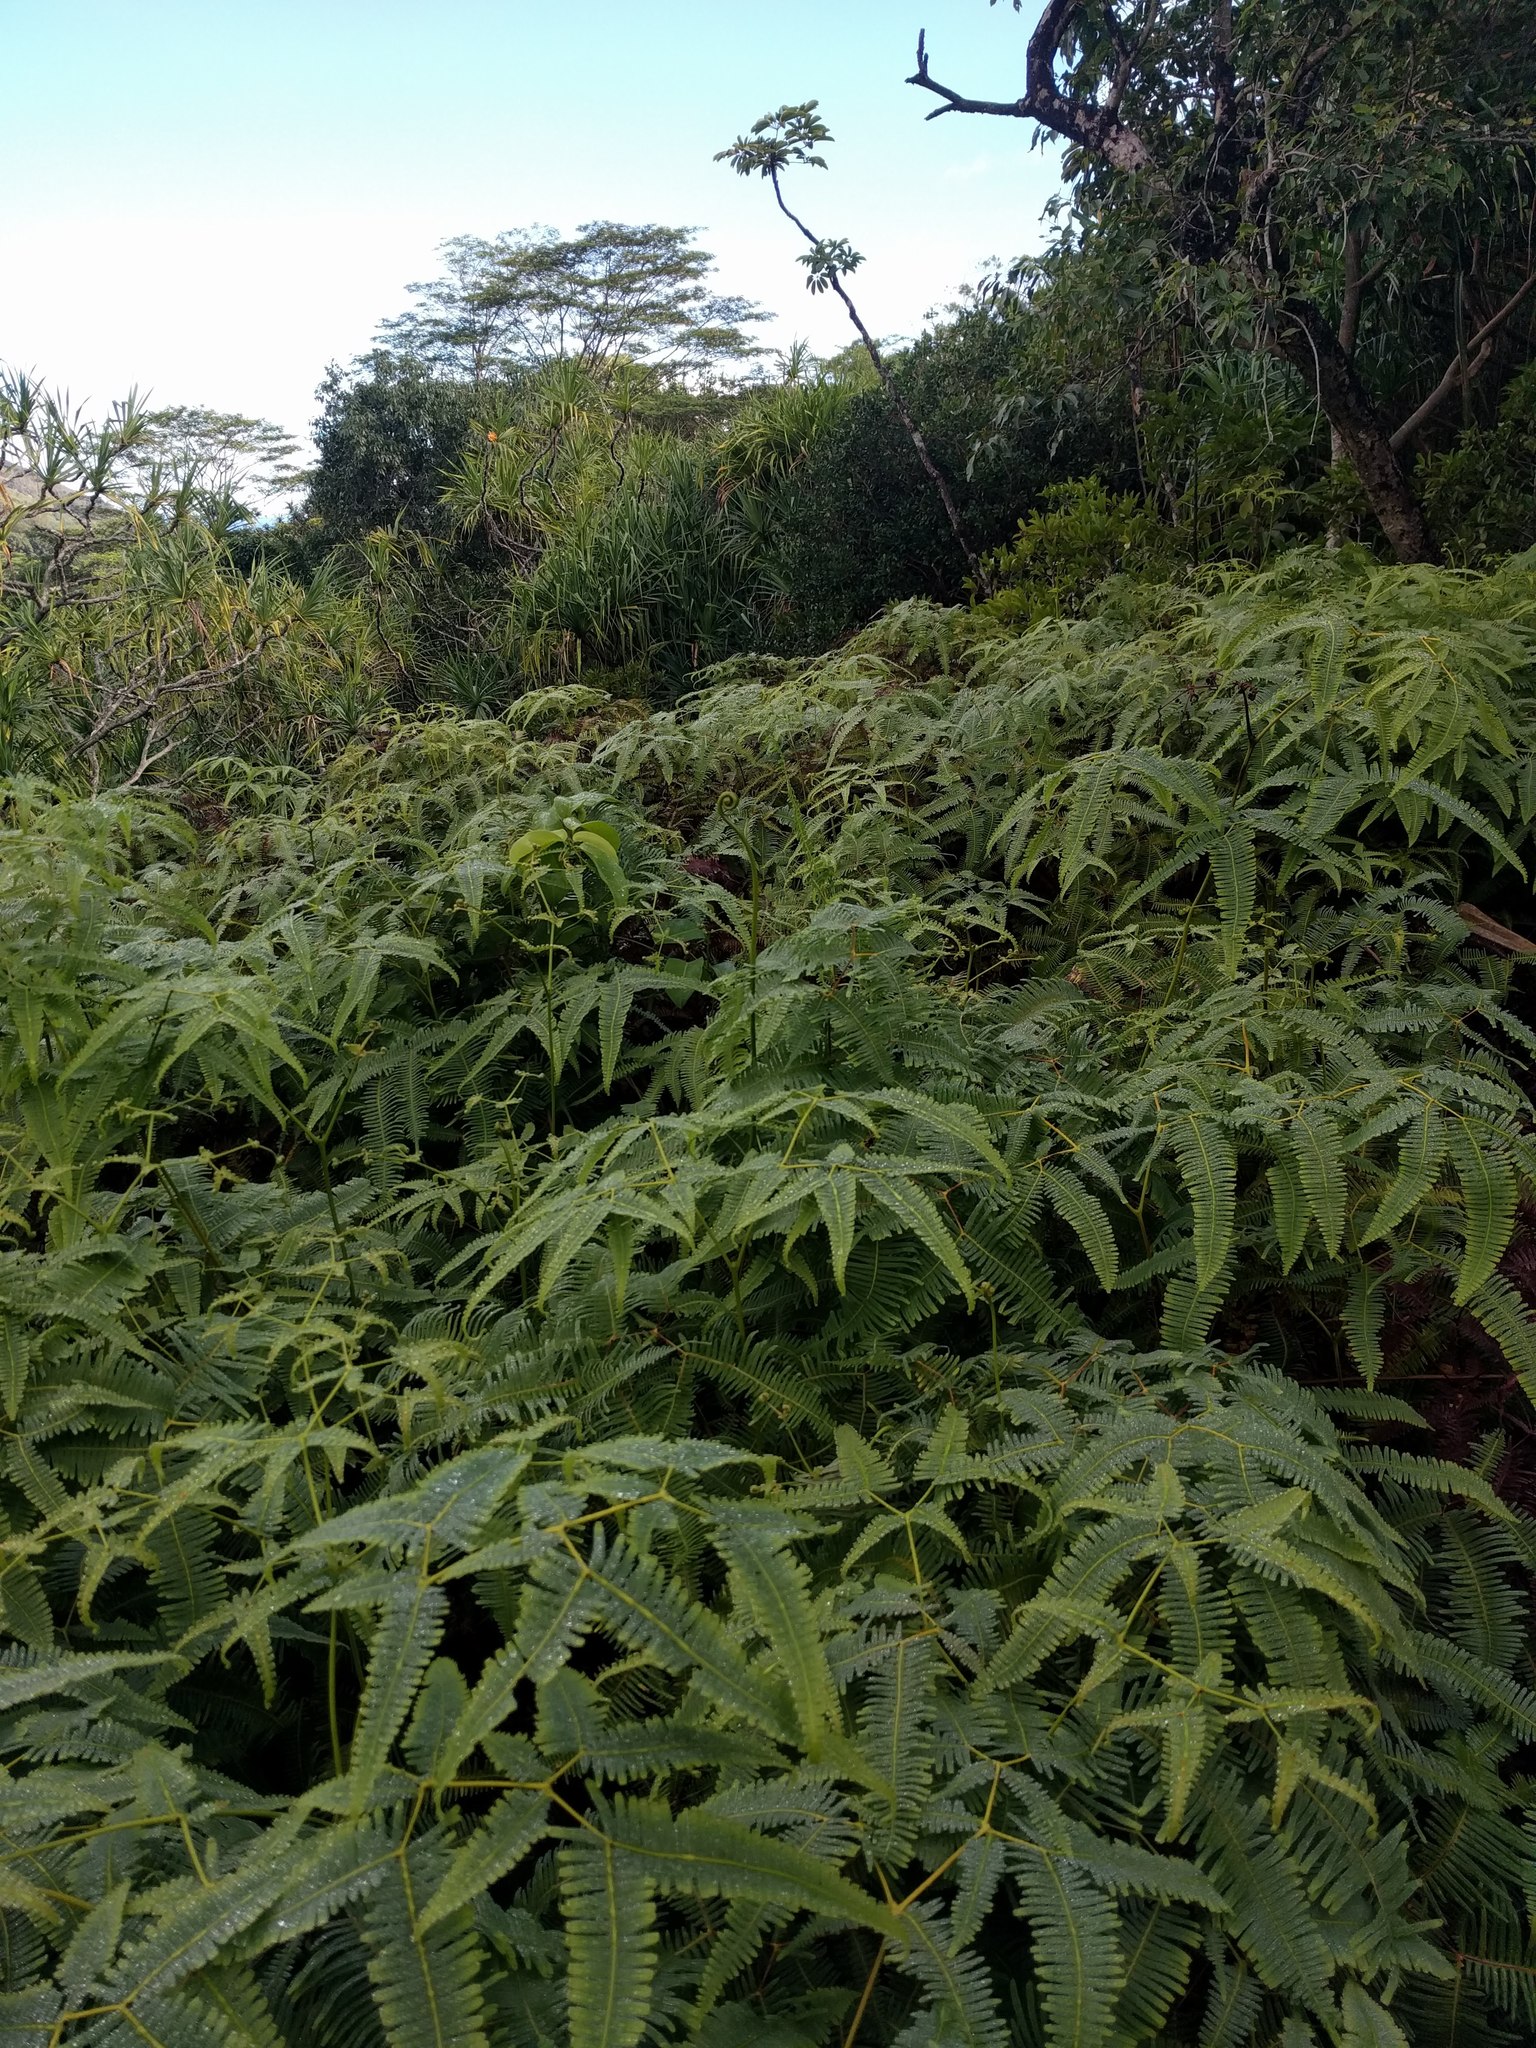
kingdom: Plantae
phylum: Tracheophyta
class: Polypodiopsida
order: Gleicheniales
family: Gleicheniaceae
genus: Dicranopteris
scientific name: Dicranopteris linearis
